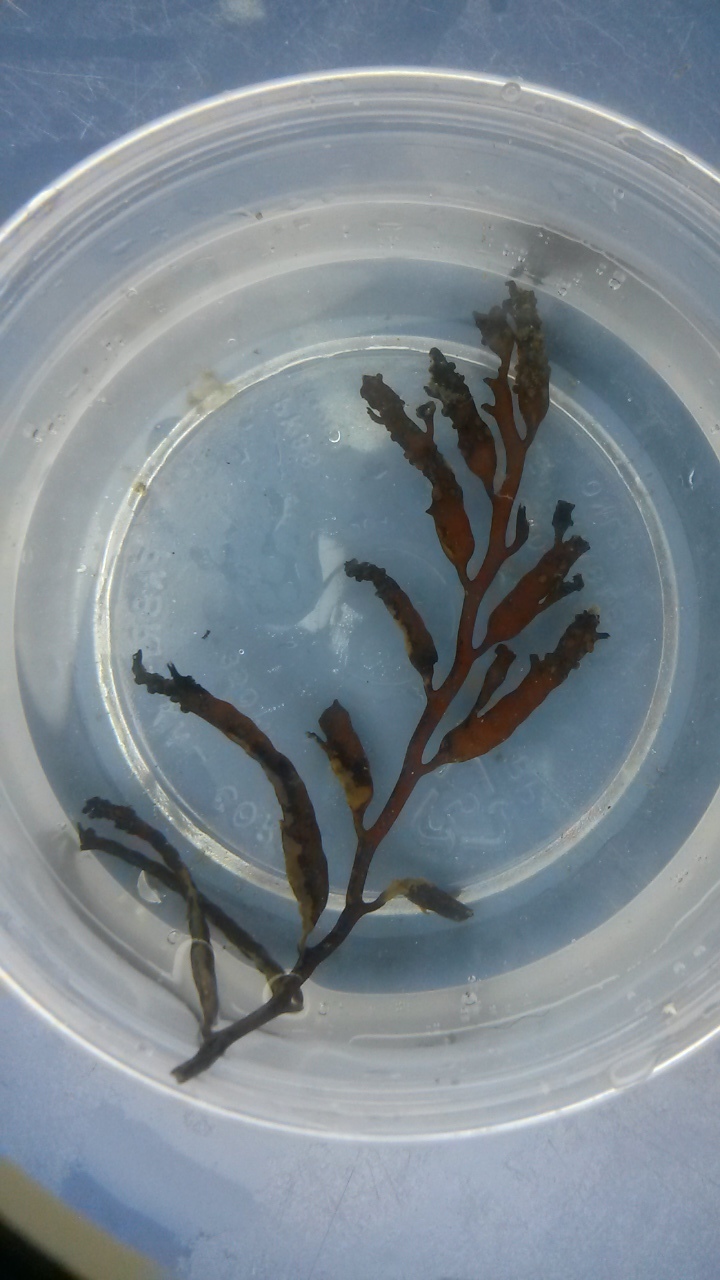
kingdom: Chromista
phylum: Ochrophyta
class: Phaeophyceae
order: Fucales
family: Sargassaceae
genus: Stephanocystis
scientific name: Stephanocystis
